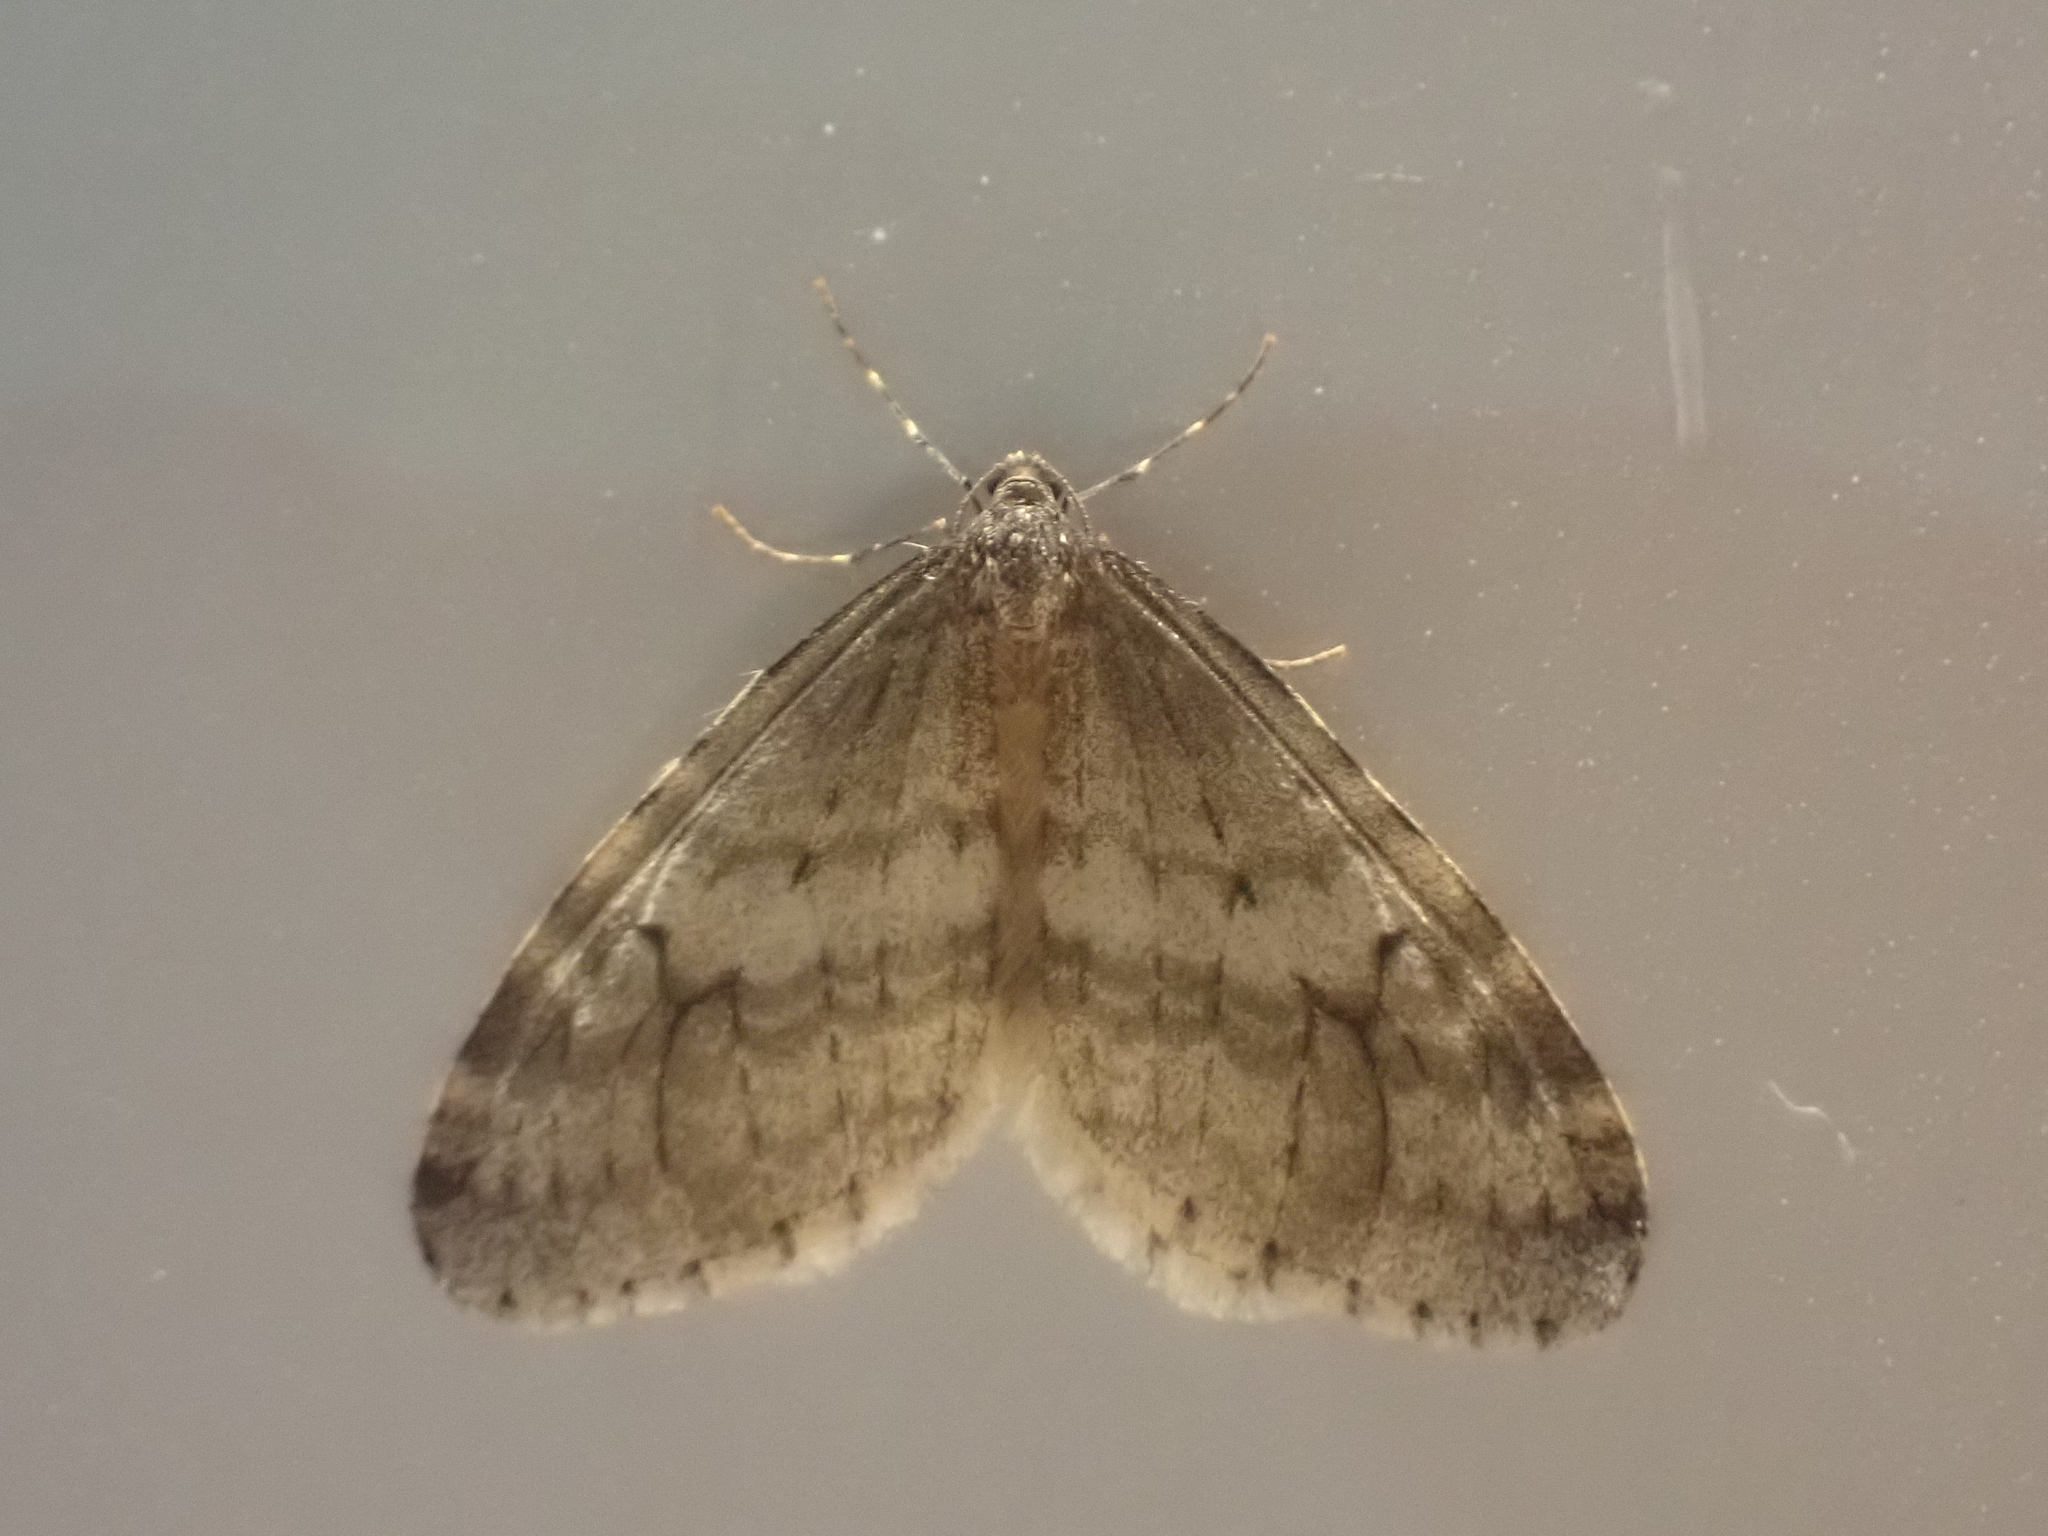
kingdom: Animalia
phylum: Arthropoda
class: Insecta
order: Lepidoptera
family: Geometridae
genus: Operophtera
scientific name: Operophtera bruceata
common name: Bruce spanworm
